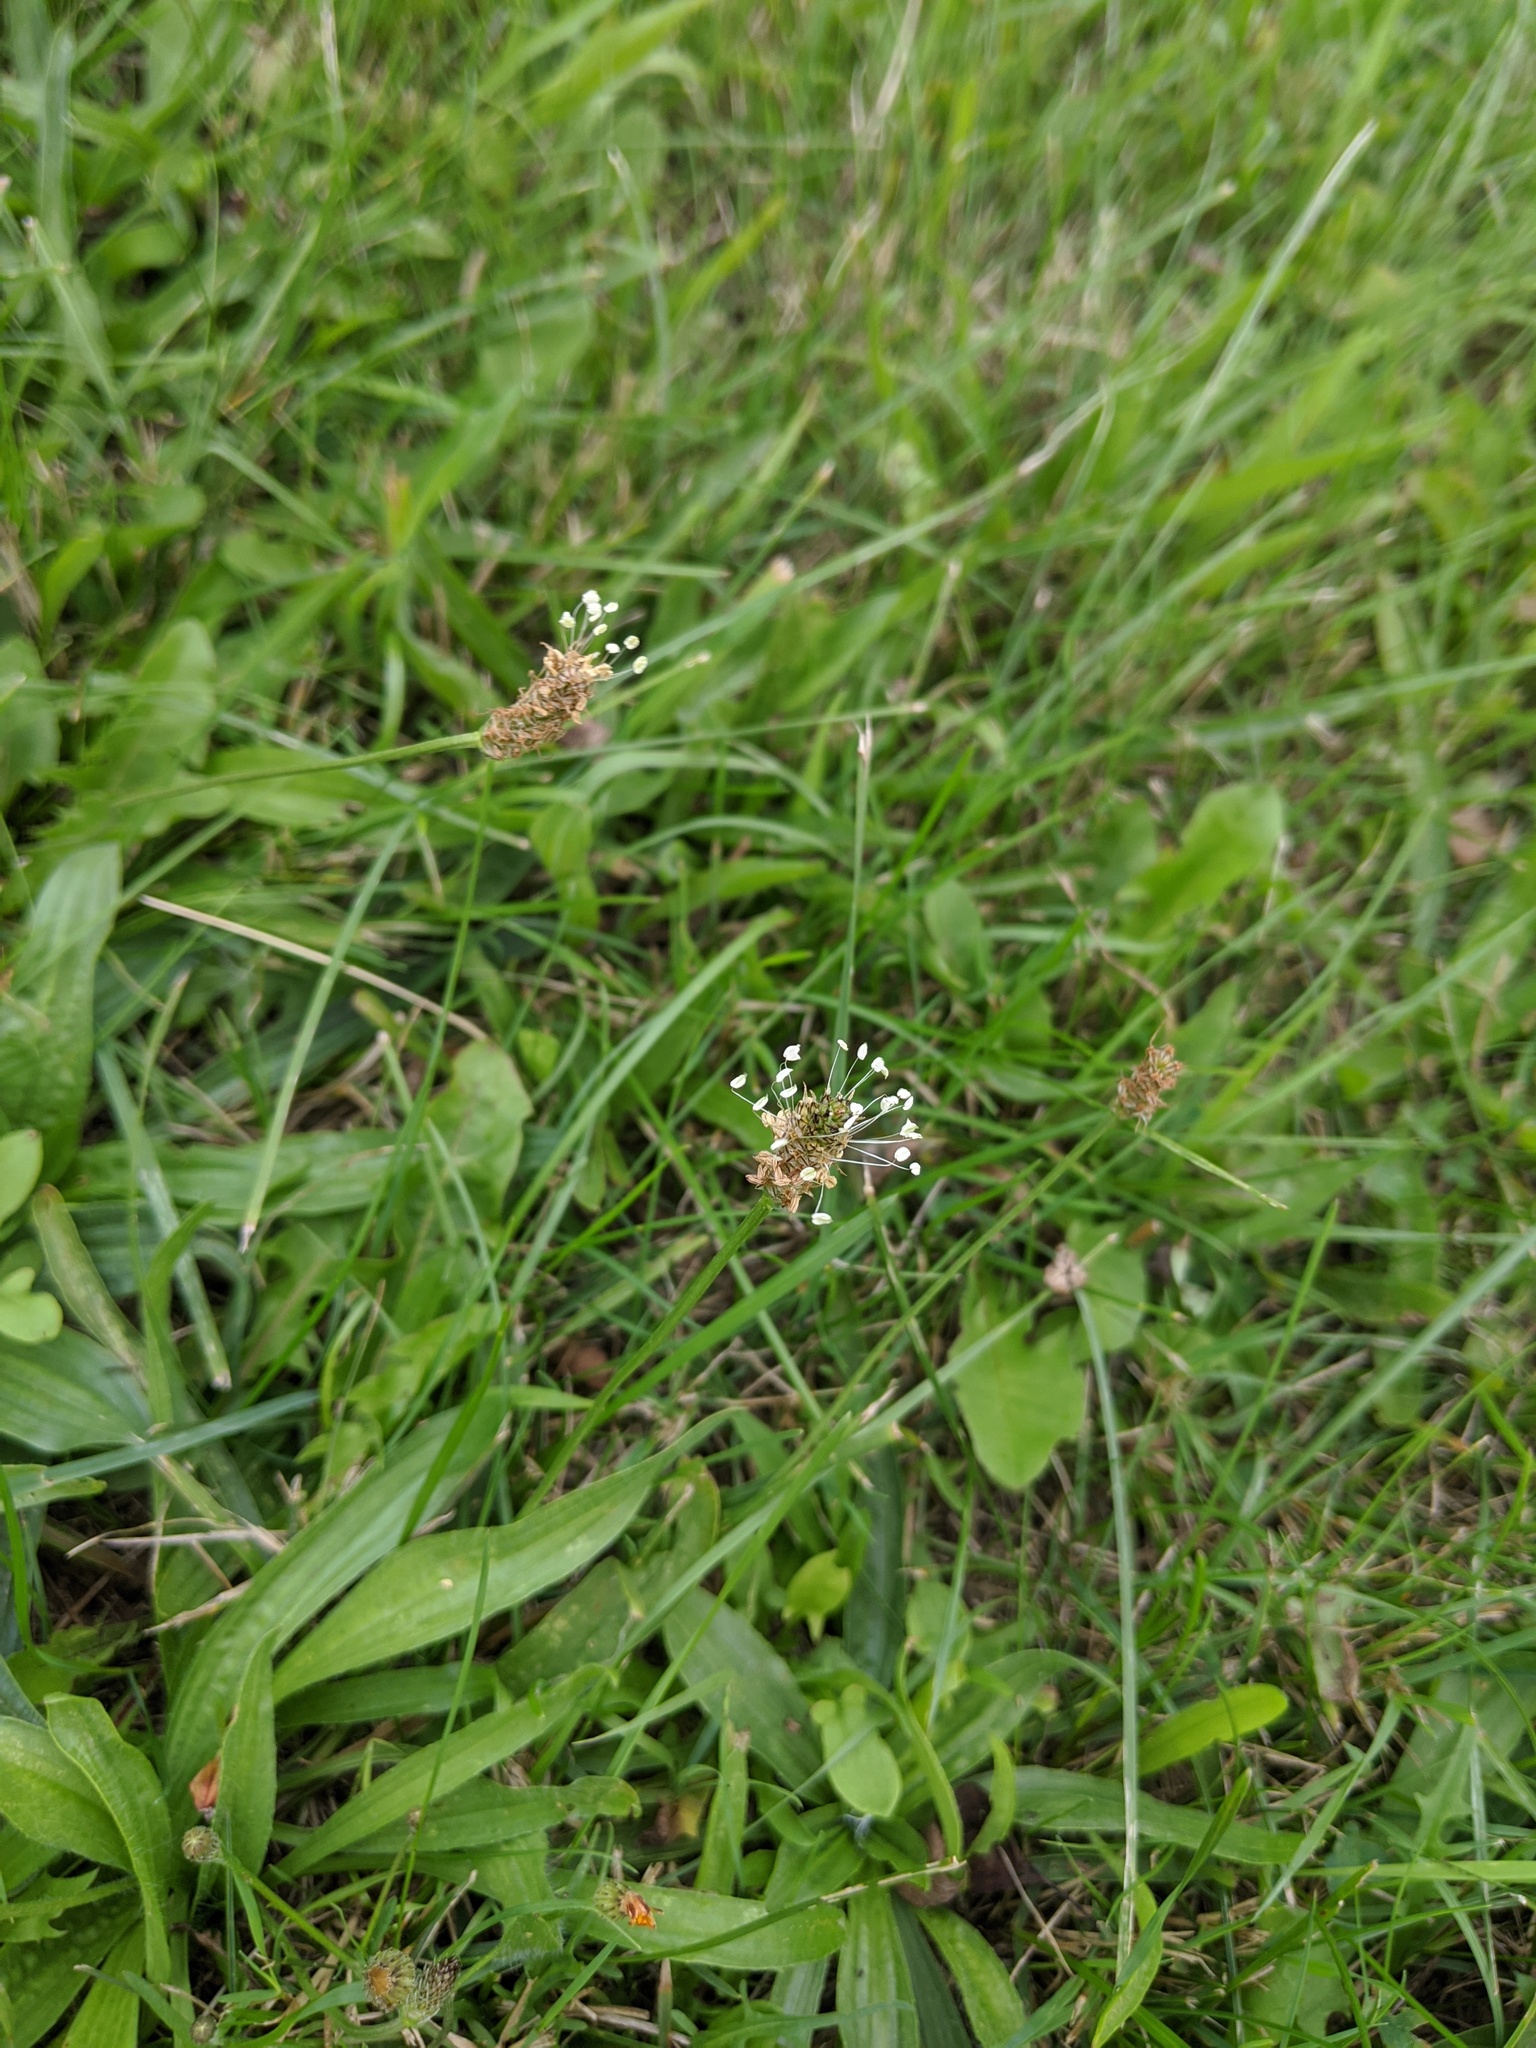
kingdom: Plantae
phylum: Tracheophyta
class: Magnoliopsida
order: Lamiales
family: Plantaginaceae
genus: Plantago
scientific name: Plantago lanceolata
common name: Ribwort plantain
